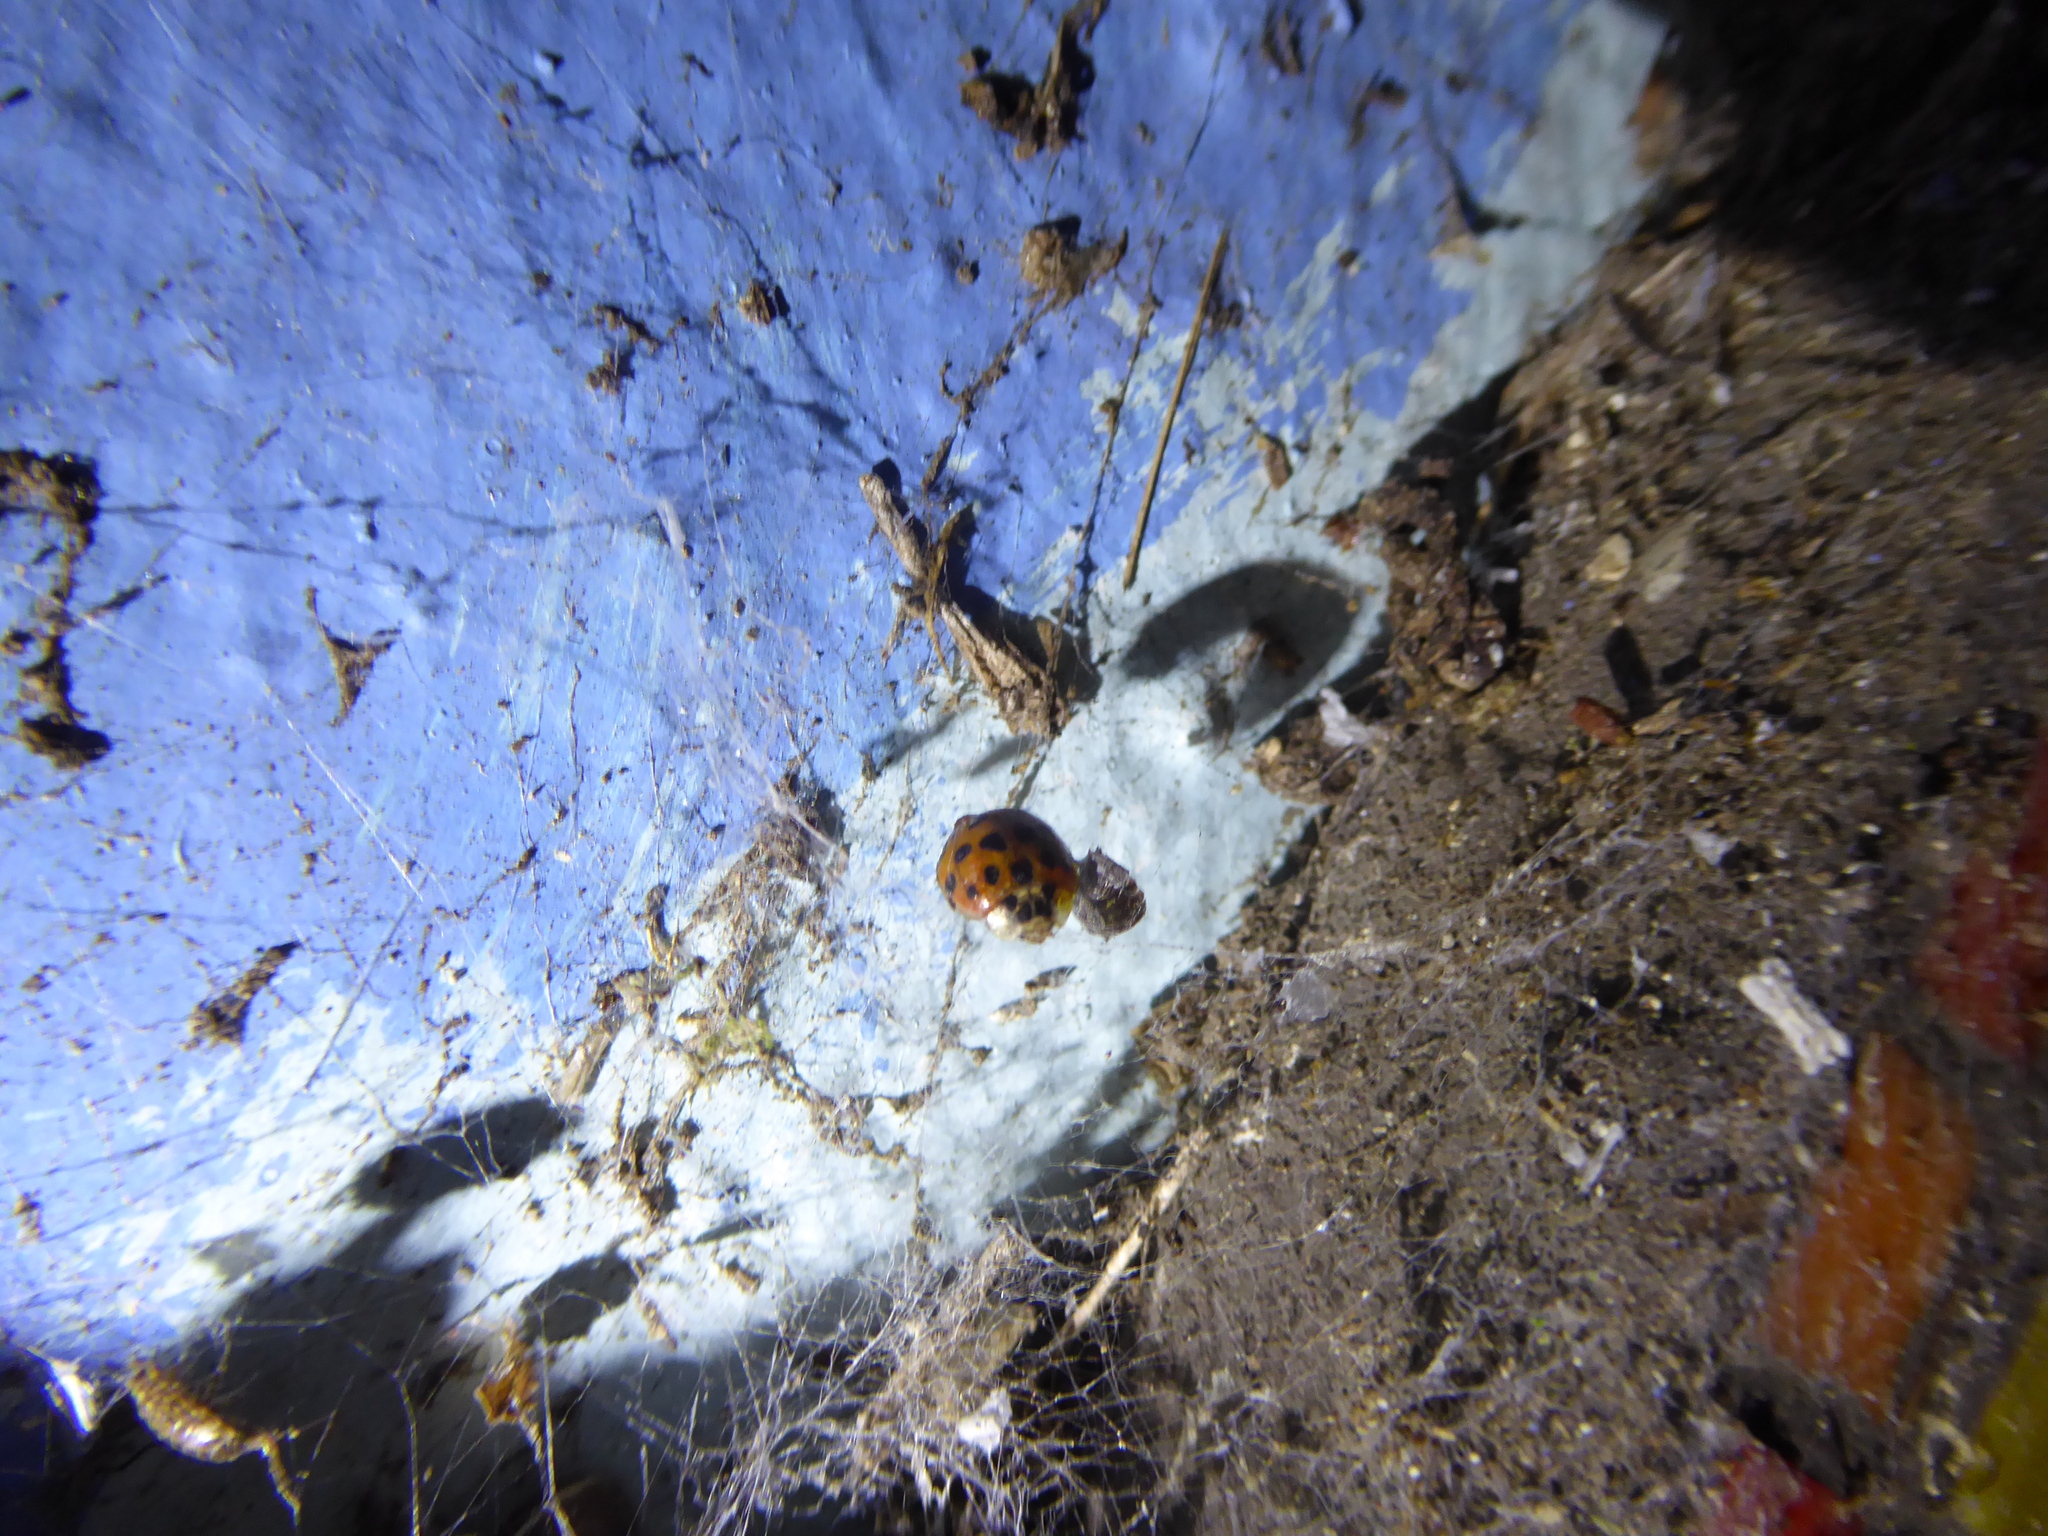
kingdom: Animalia
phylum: Arthropoda
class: Insecta
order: Coleoptera
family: Coccinellidae
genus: Harmonia
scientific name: Harmonia axyridis
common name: Harlequin ladybird
